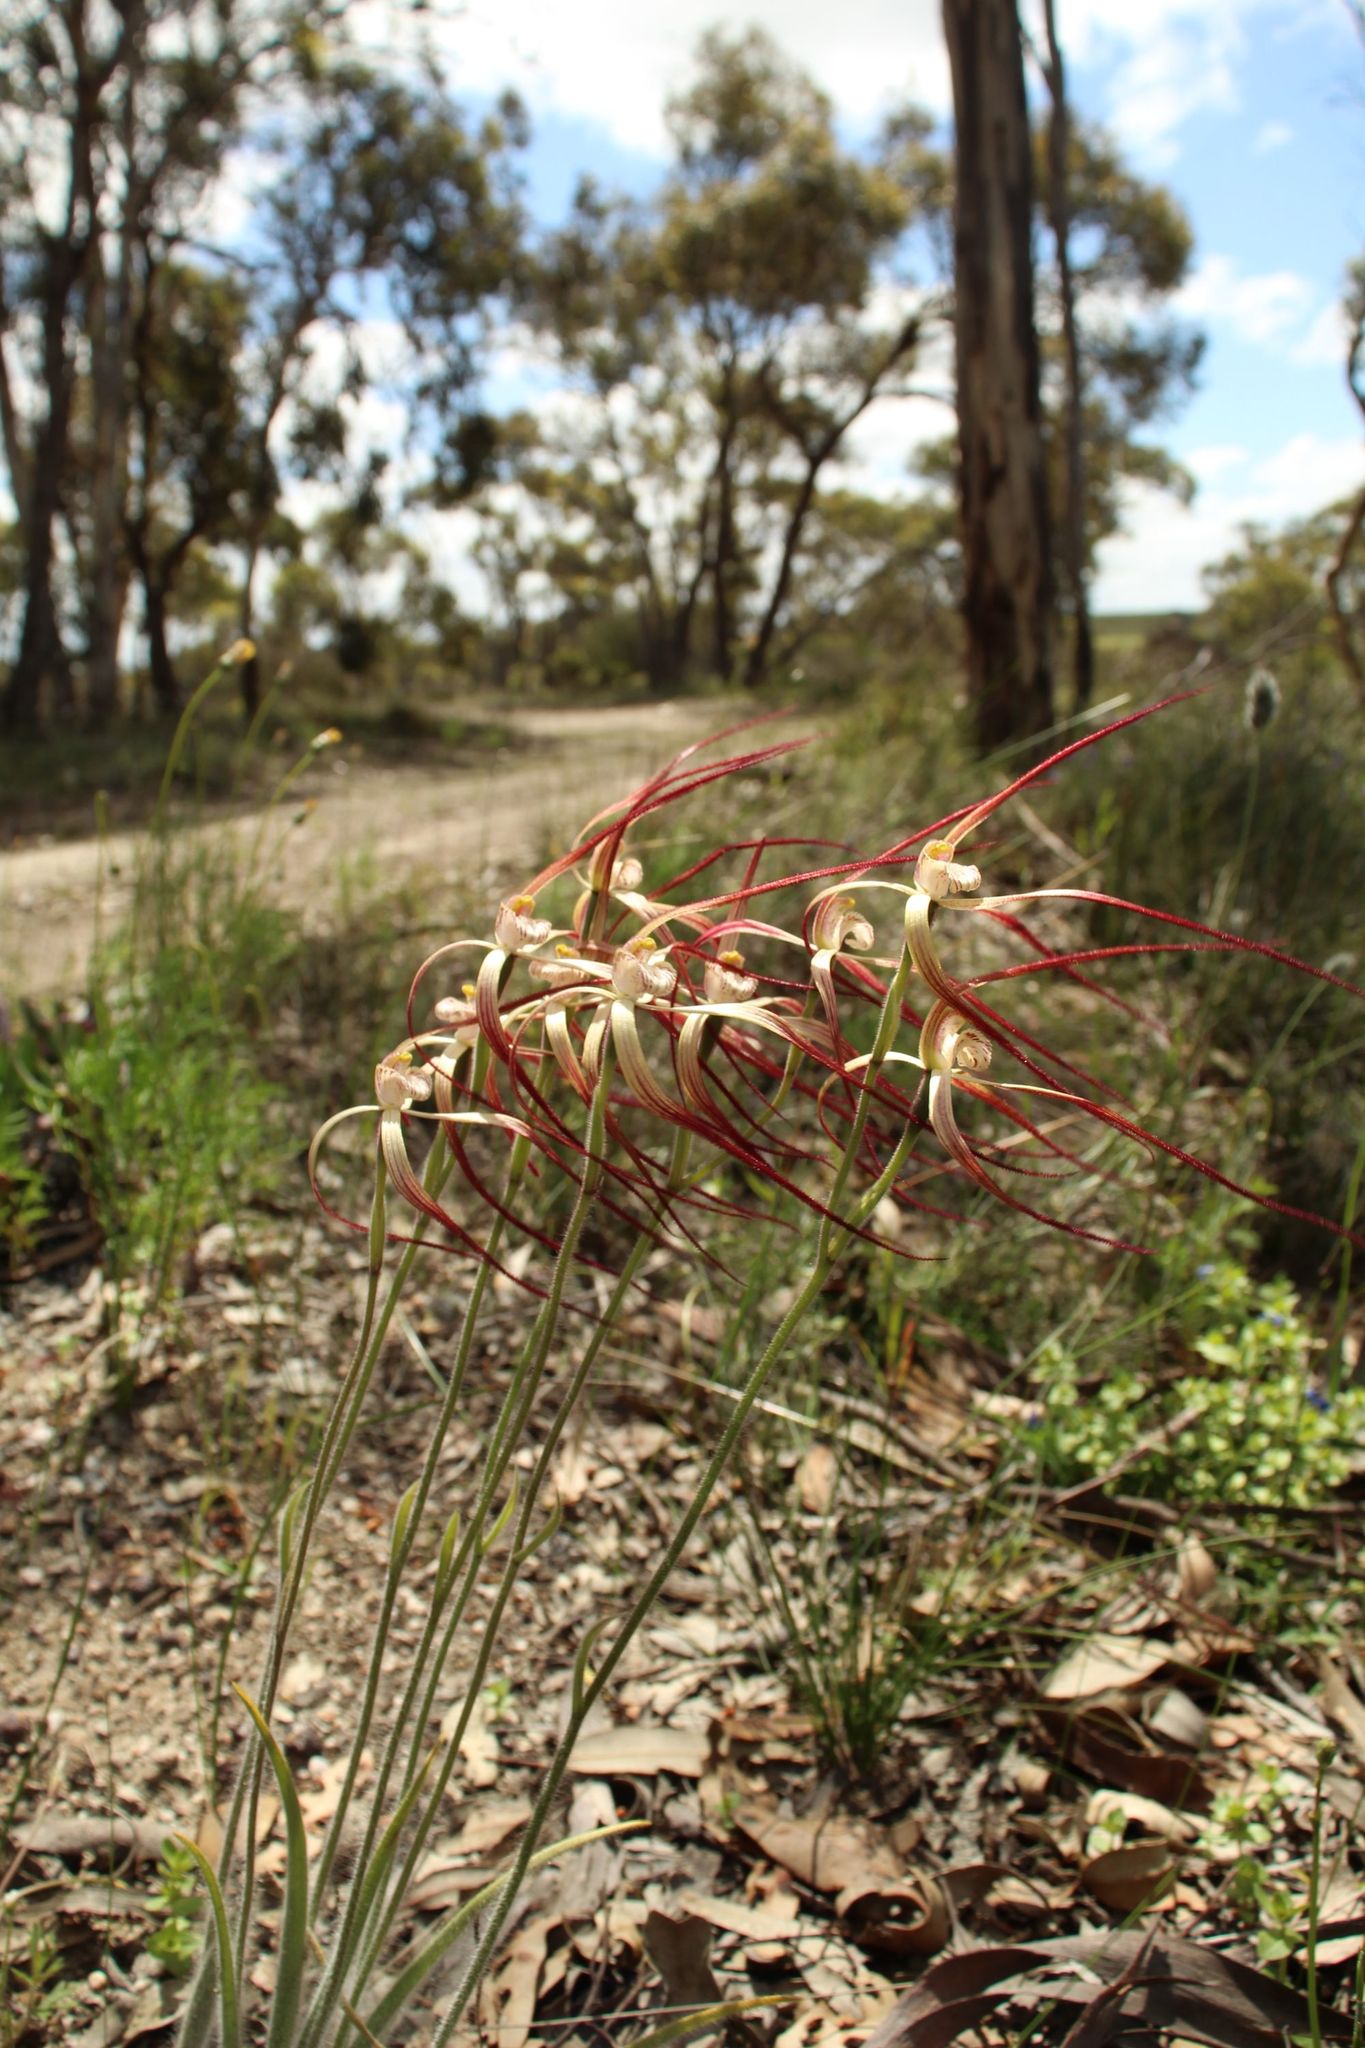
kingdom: Plantae
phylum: Tracheophyta
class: Liliopsida
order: Asparagales
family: Orchidaceae
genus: Caladenia
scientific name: Caladenia polychroma
